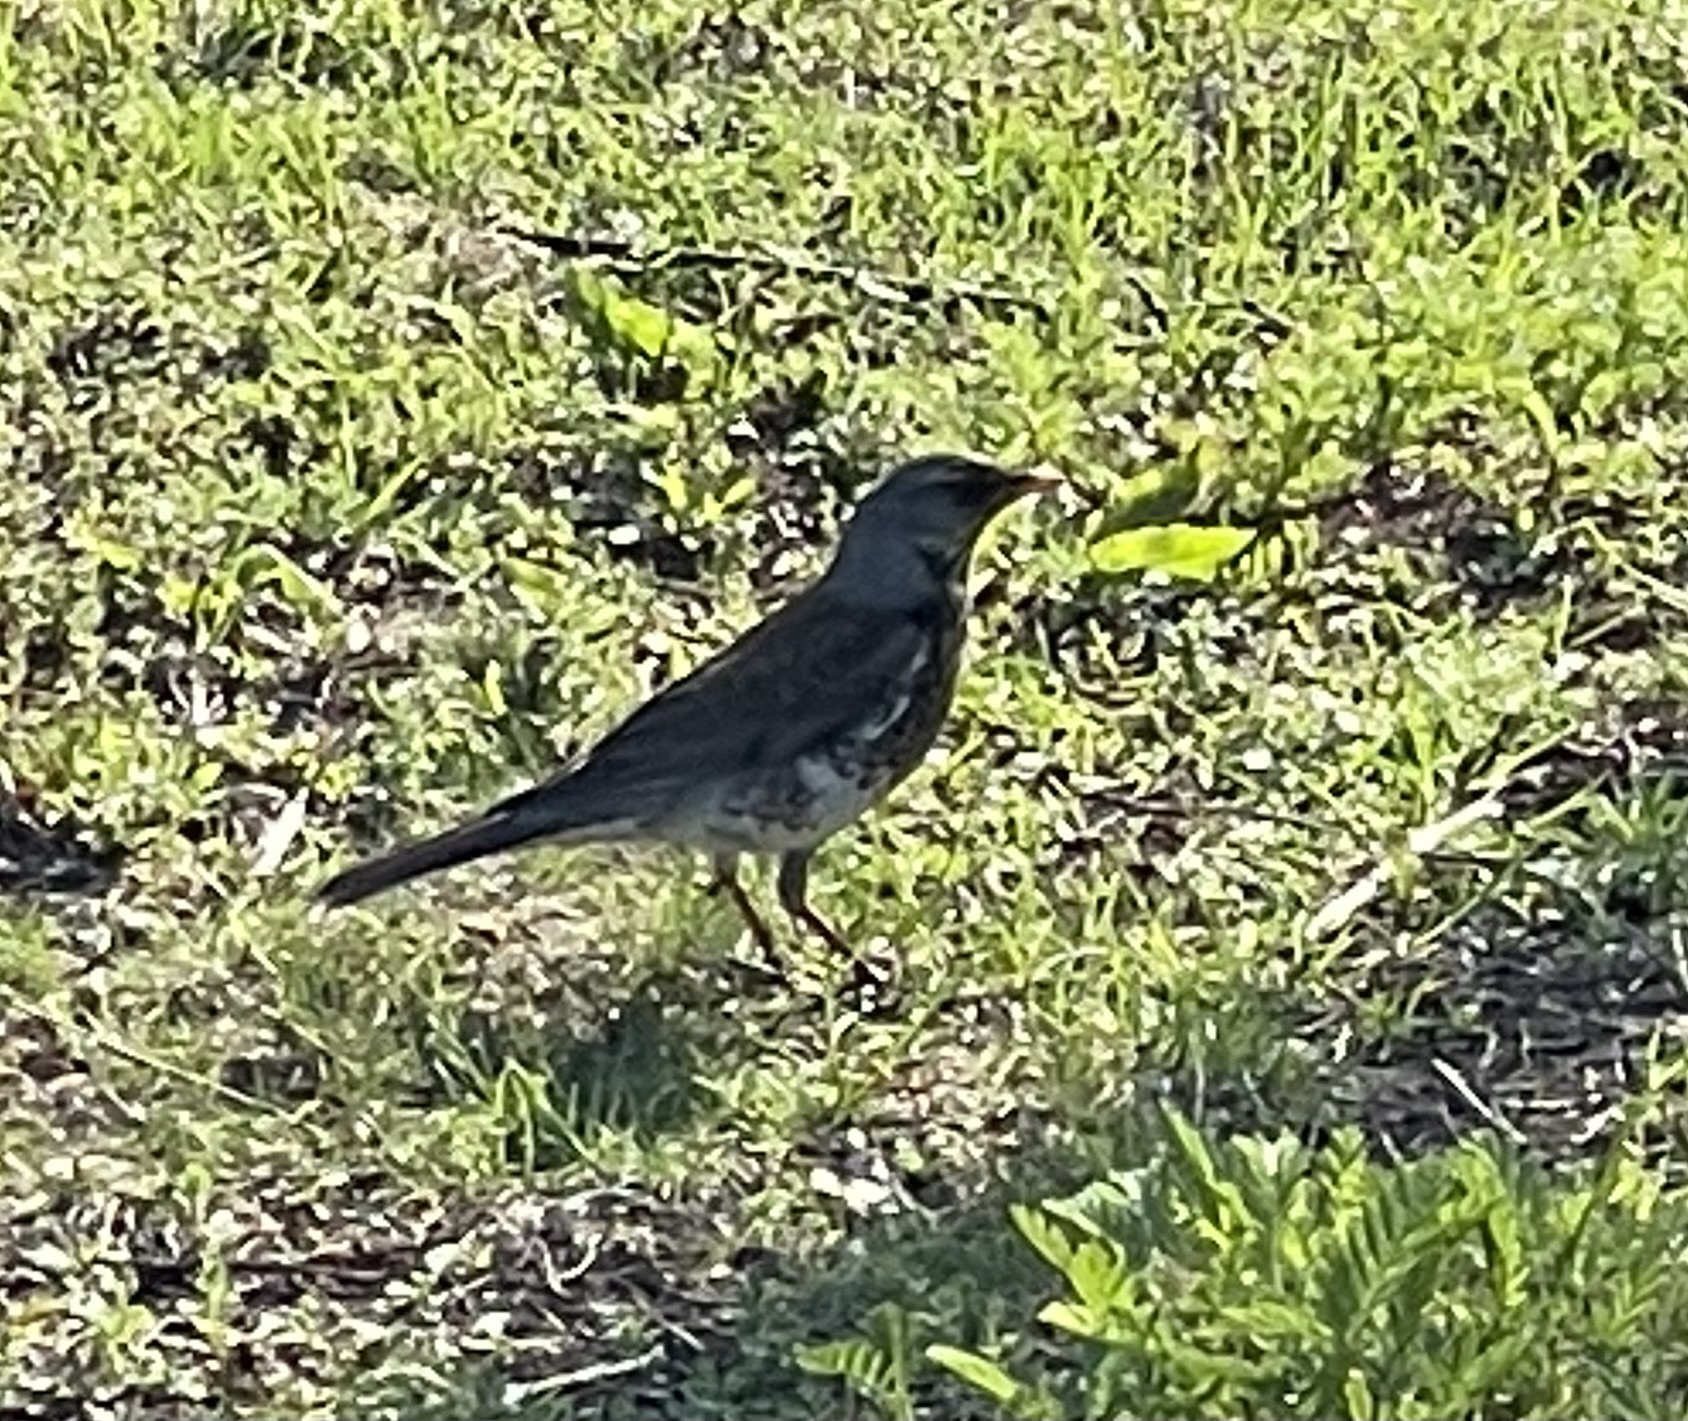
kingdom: Animalia
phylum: Chordata
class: Aves
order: Passeriformes
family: Turdidae
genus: Turdus
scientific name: Turdus pilaris
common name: Fieldfare
